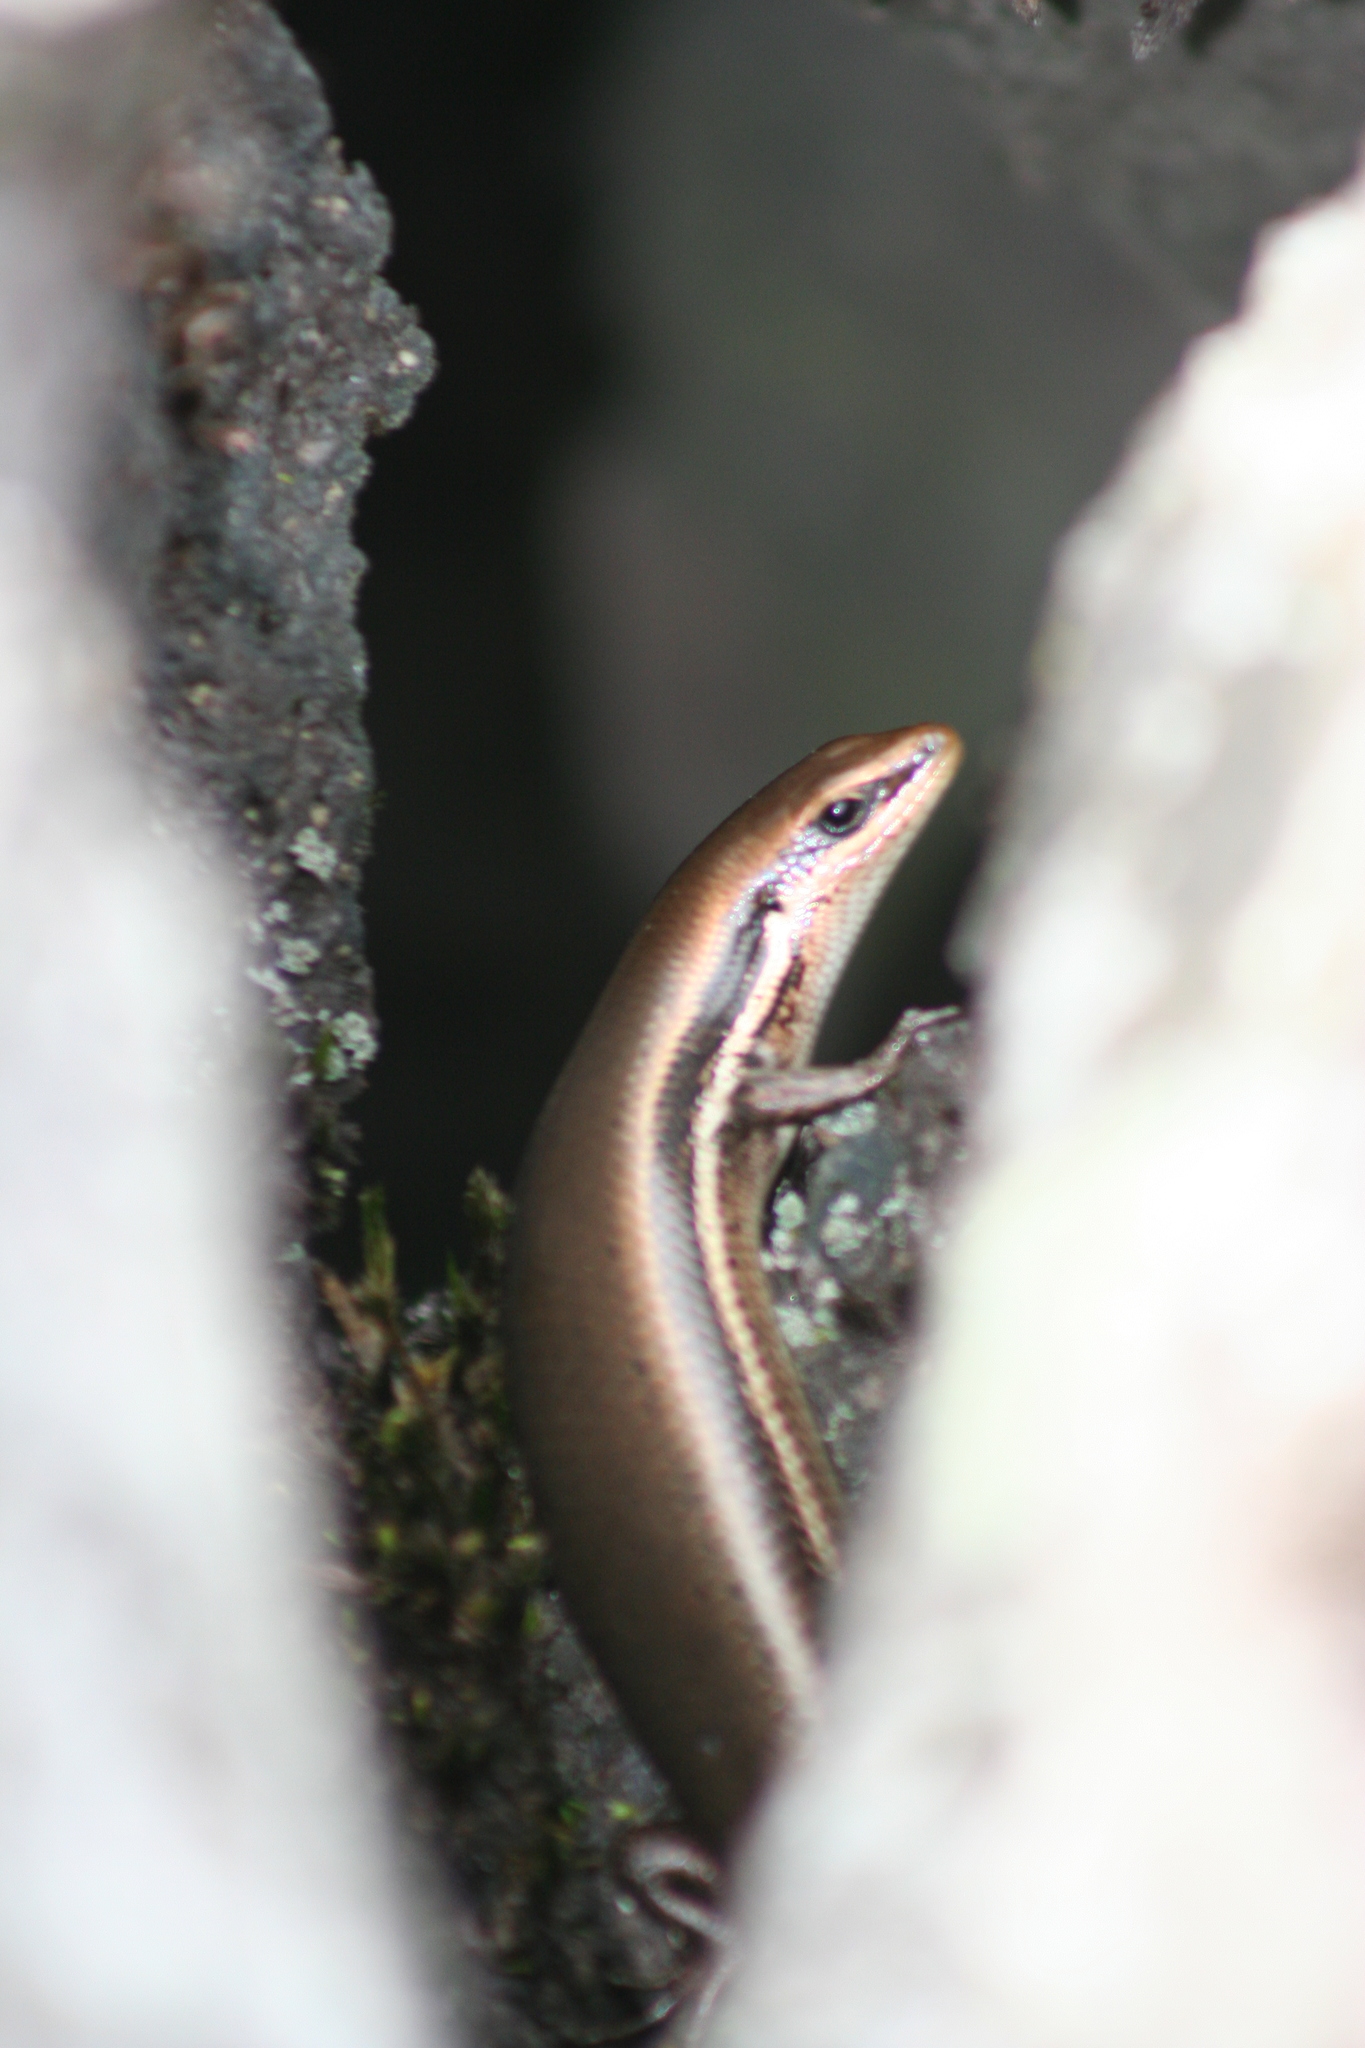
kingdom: Animalia
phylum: Chordata
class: Squamata
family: Scincidae
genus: Marisora
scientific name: Marisora brachypoda
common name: Western middle america skink
